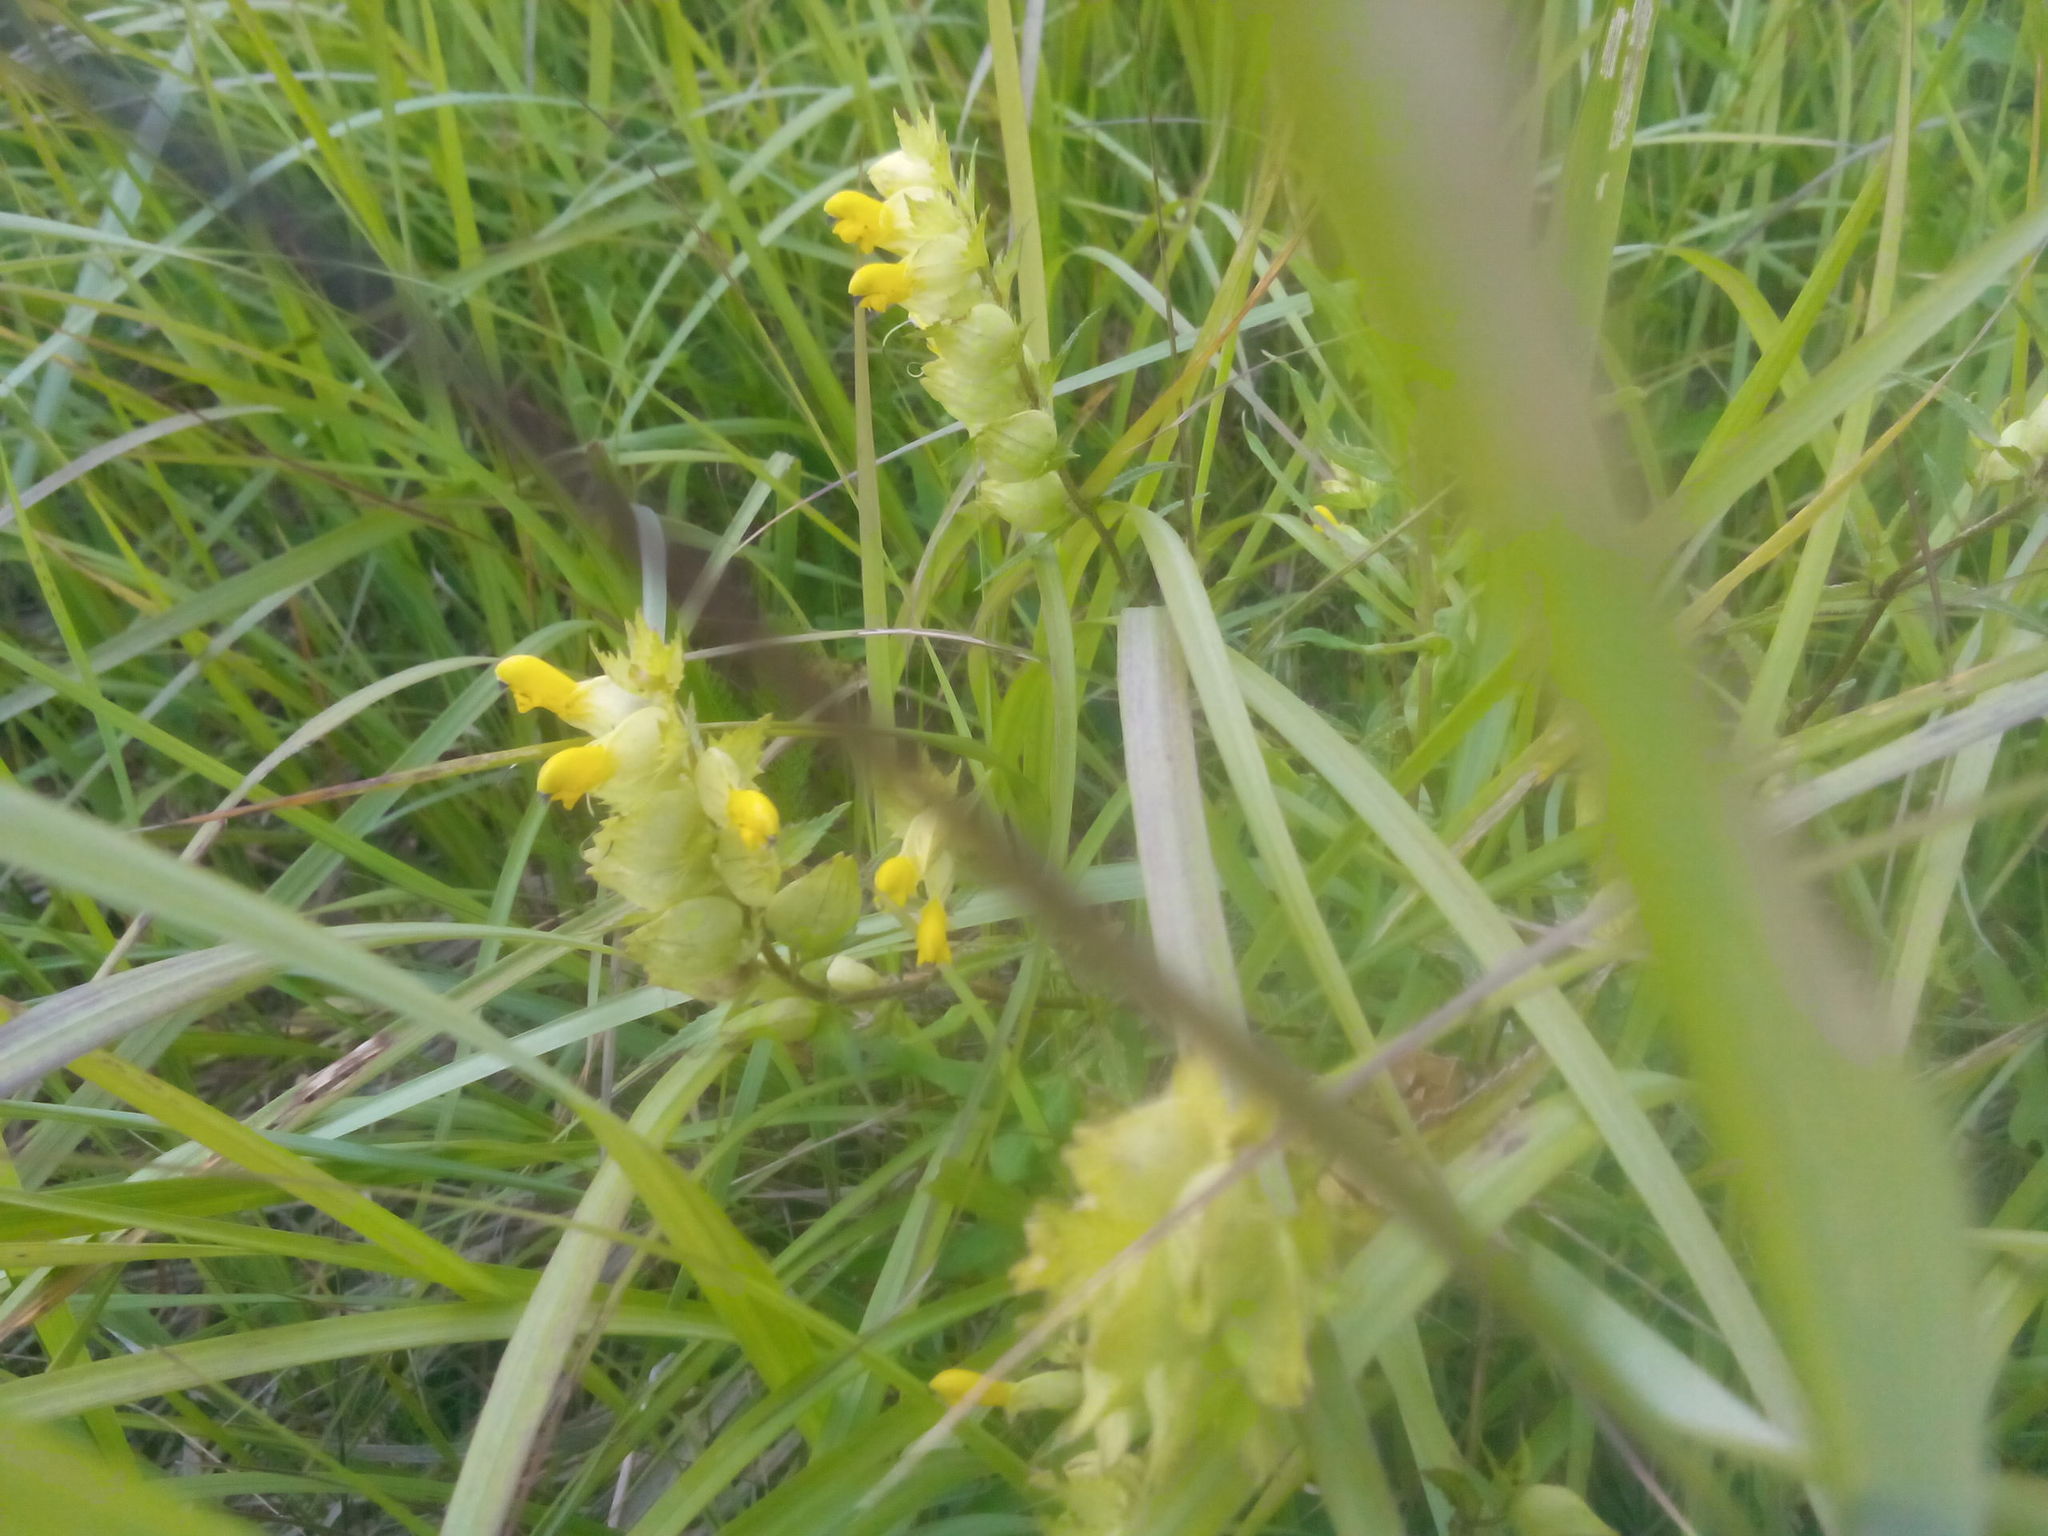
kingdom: Plantae
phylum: Tracheophyta
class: Magnoliopsida
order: Lamiales
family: Orobanchaceae
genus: Rhinanthus
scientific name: Rhinanthus serotinus
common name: Late-flowering yellow rattle
